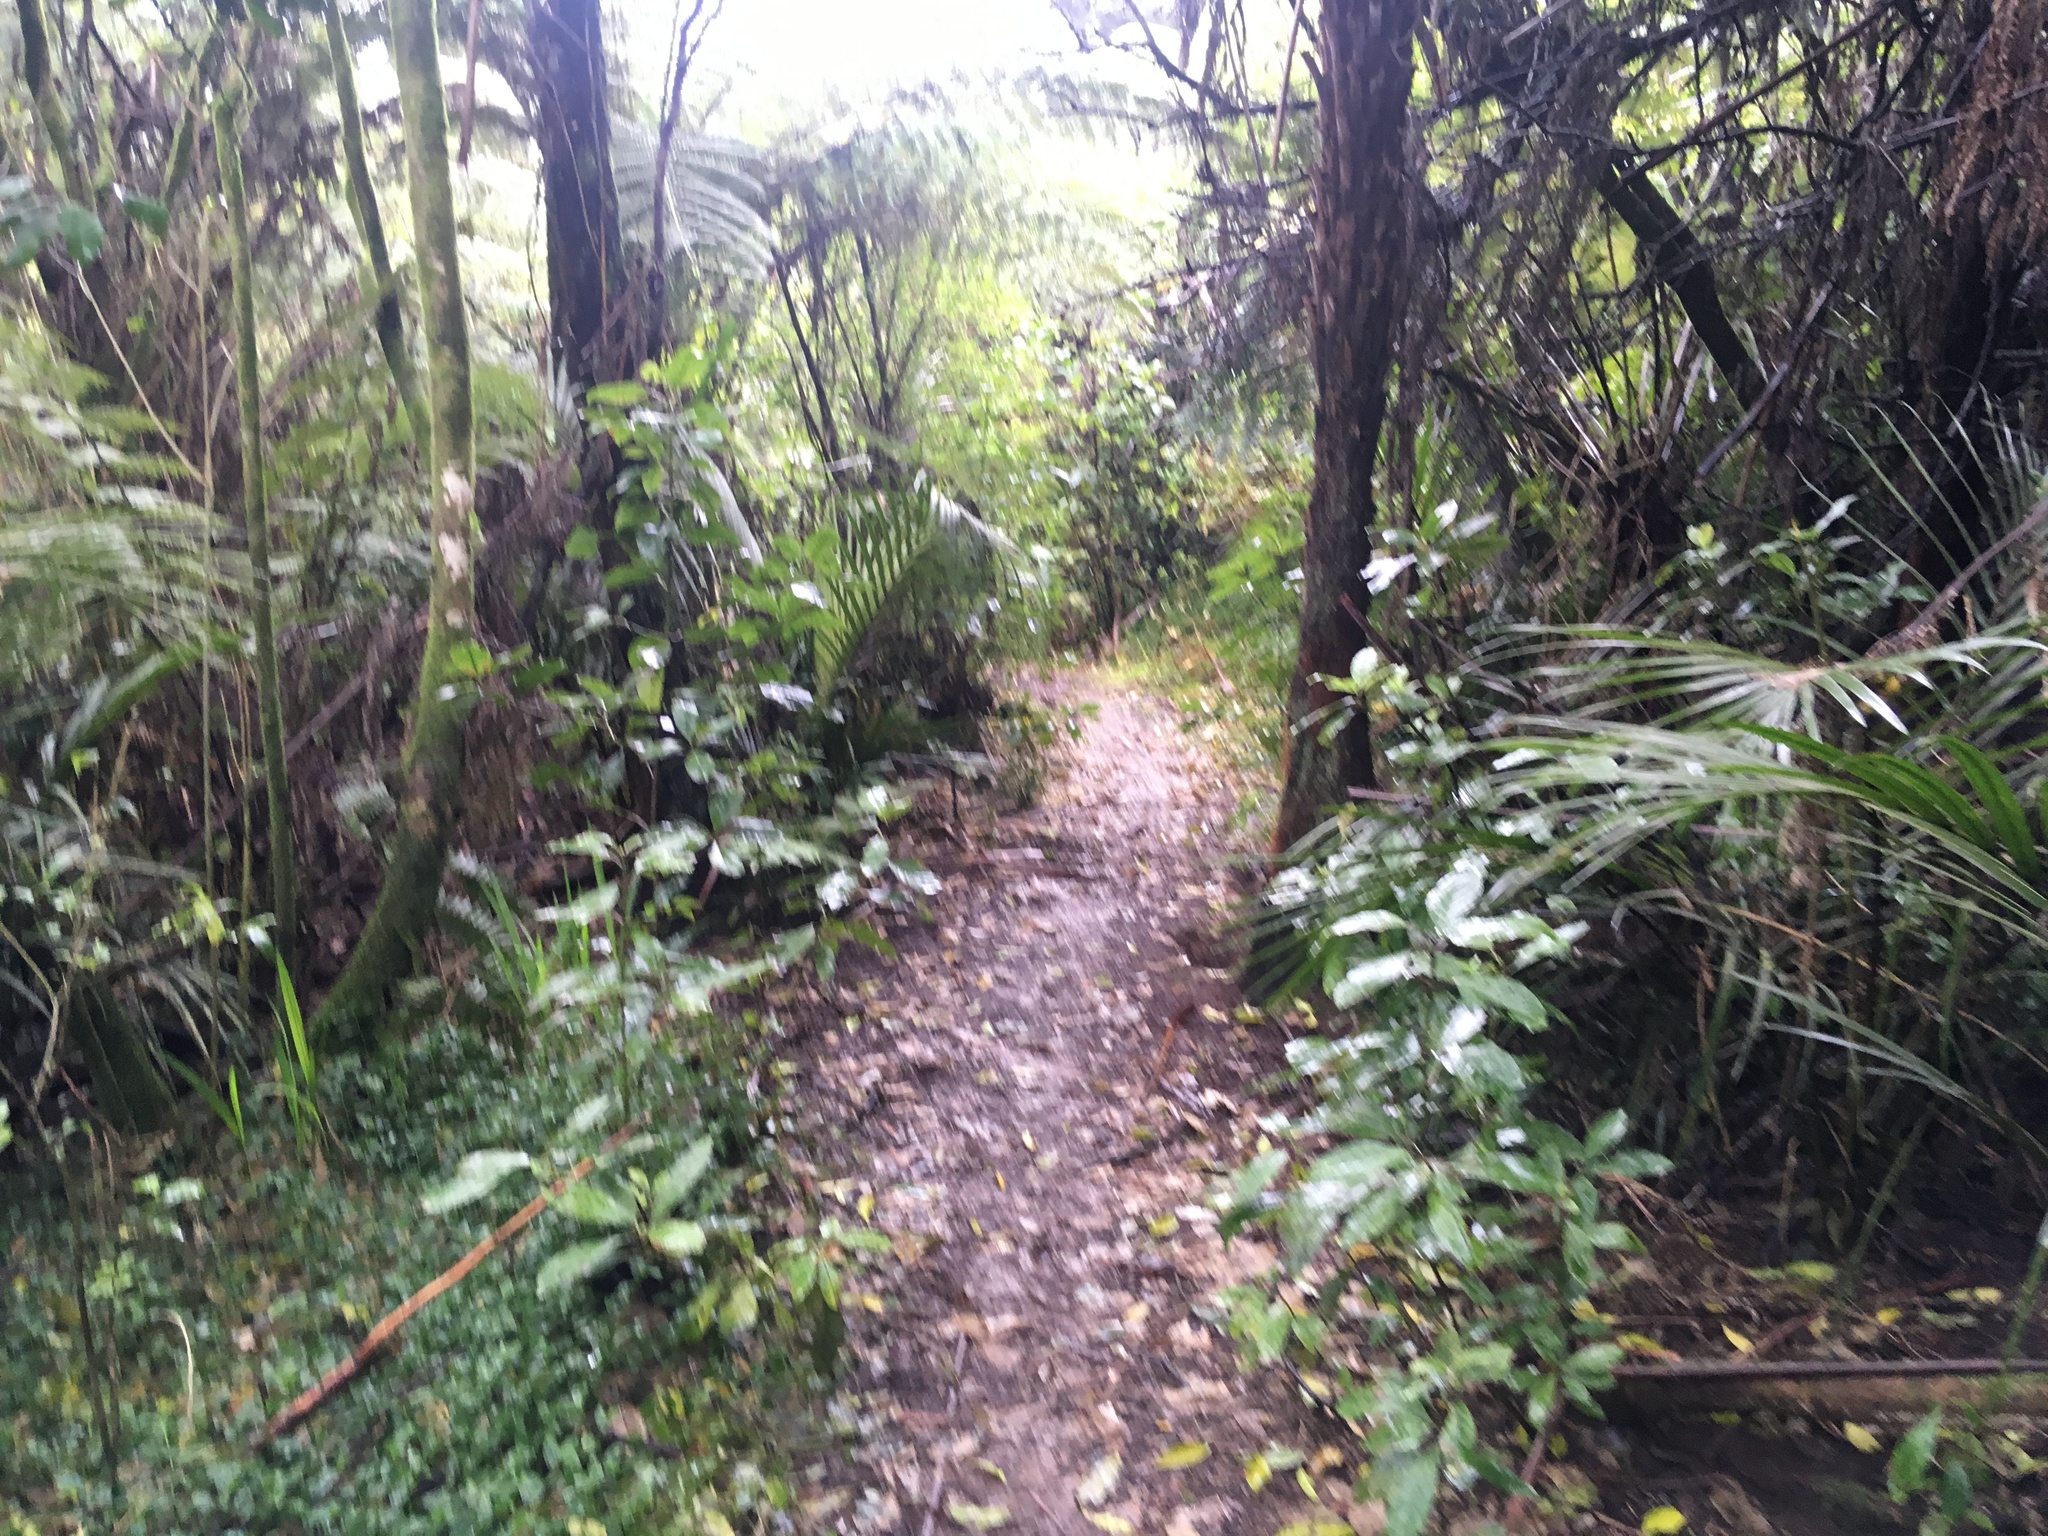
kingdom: Plantae
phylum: Tracheophyta
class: Liliopsida
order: Arecales
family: Arecaceae
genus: Rhopalostylis
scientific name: Rhopalostylis sapida
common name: Feather-duster palm
